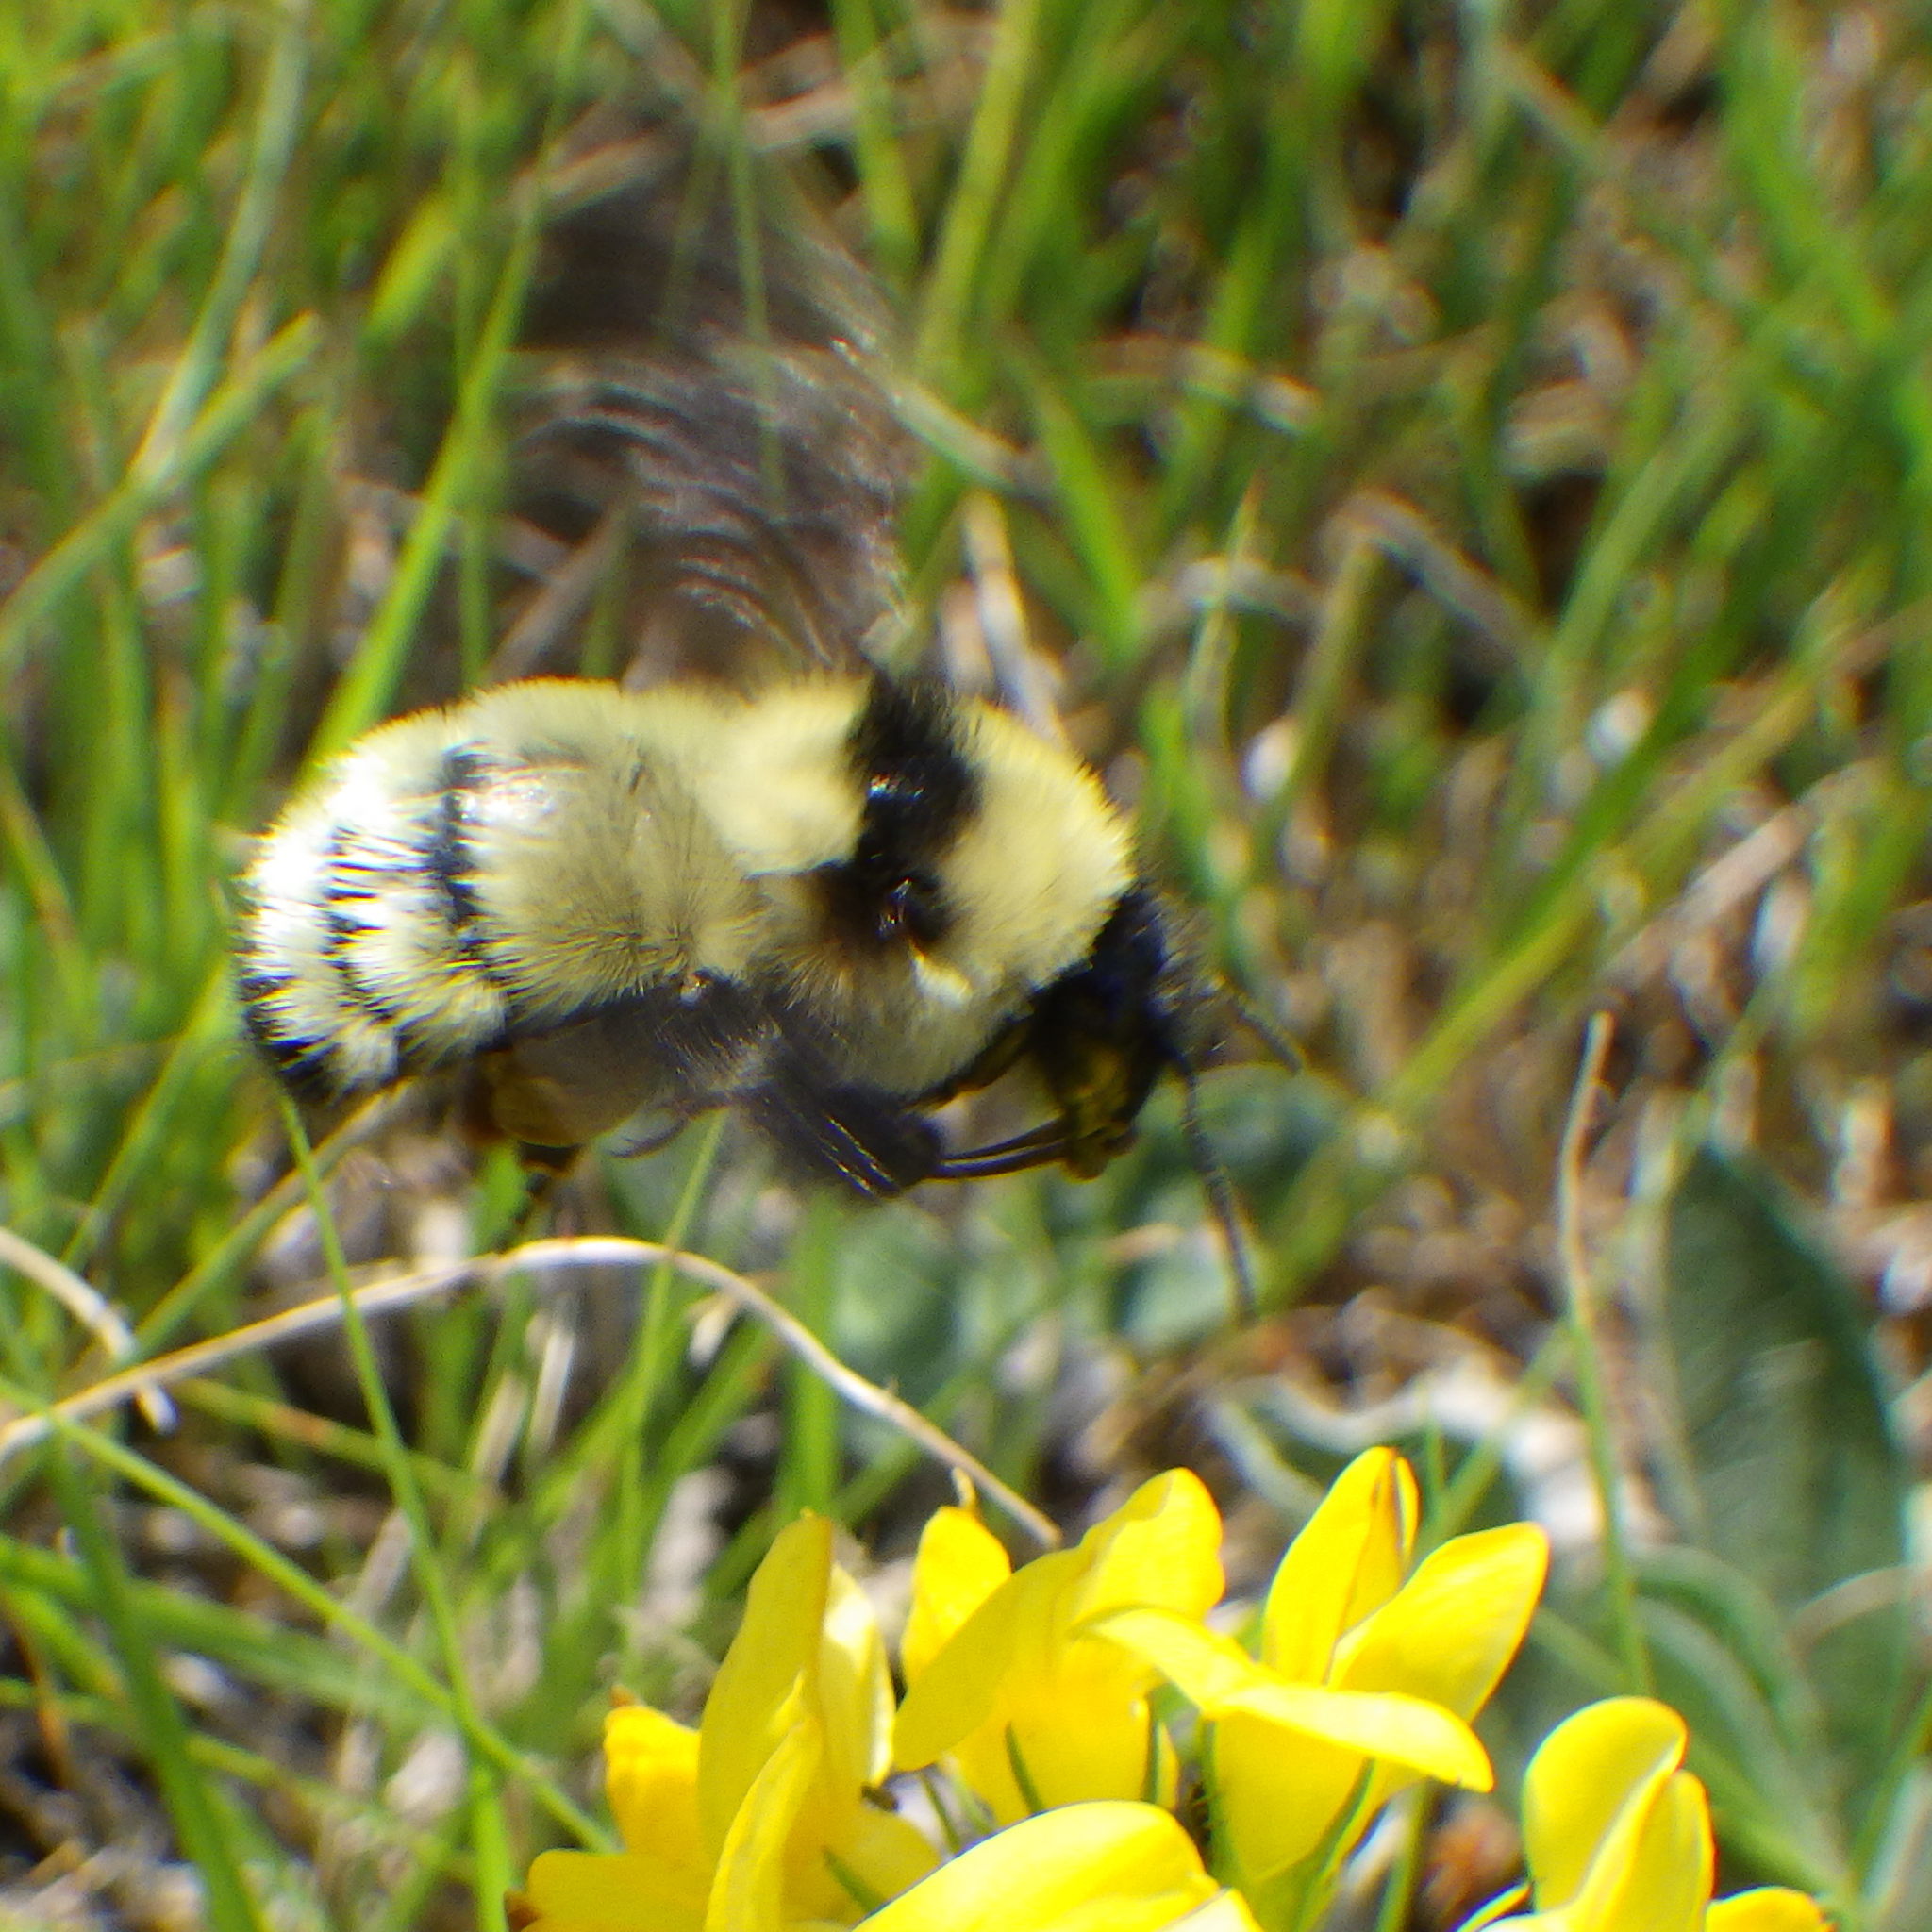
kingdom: Animalia
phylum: Arthropoda
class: Insecta
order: Hymenoptera
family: Apidae
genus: Bombus
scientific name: Bombus fervidus
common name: Yellow bumble bee
